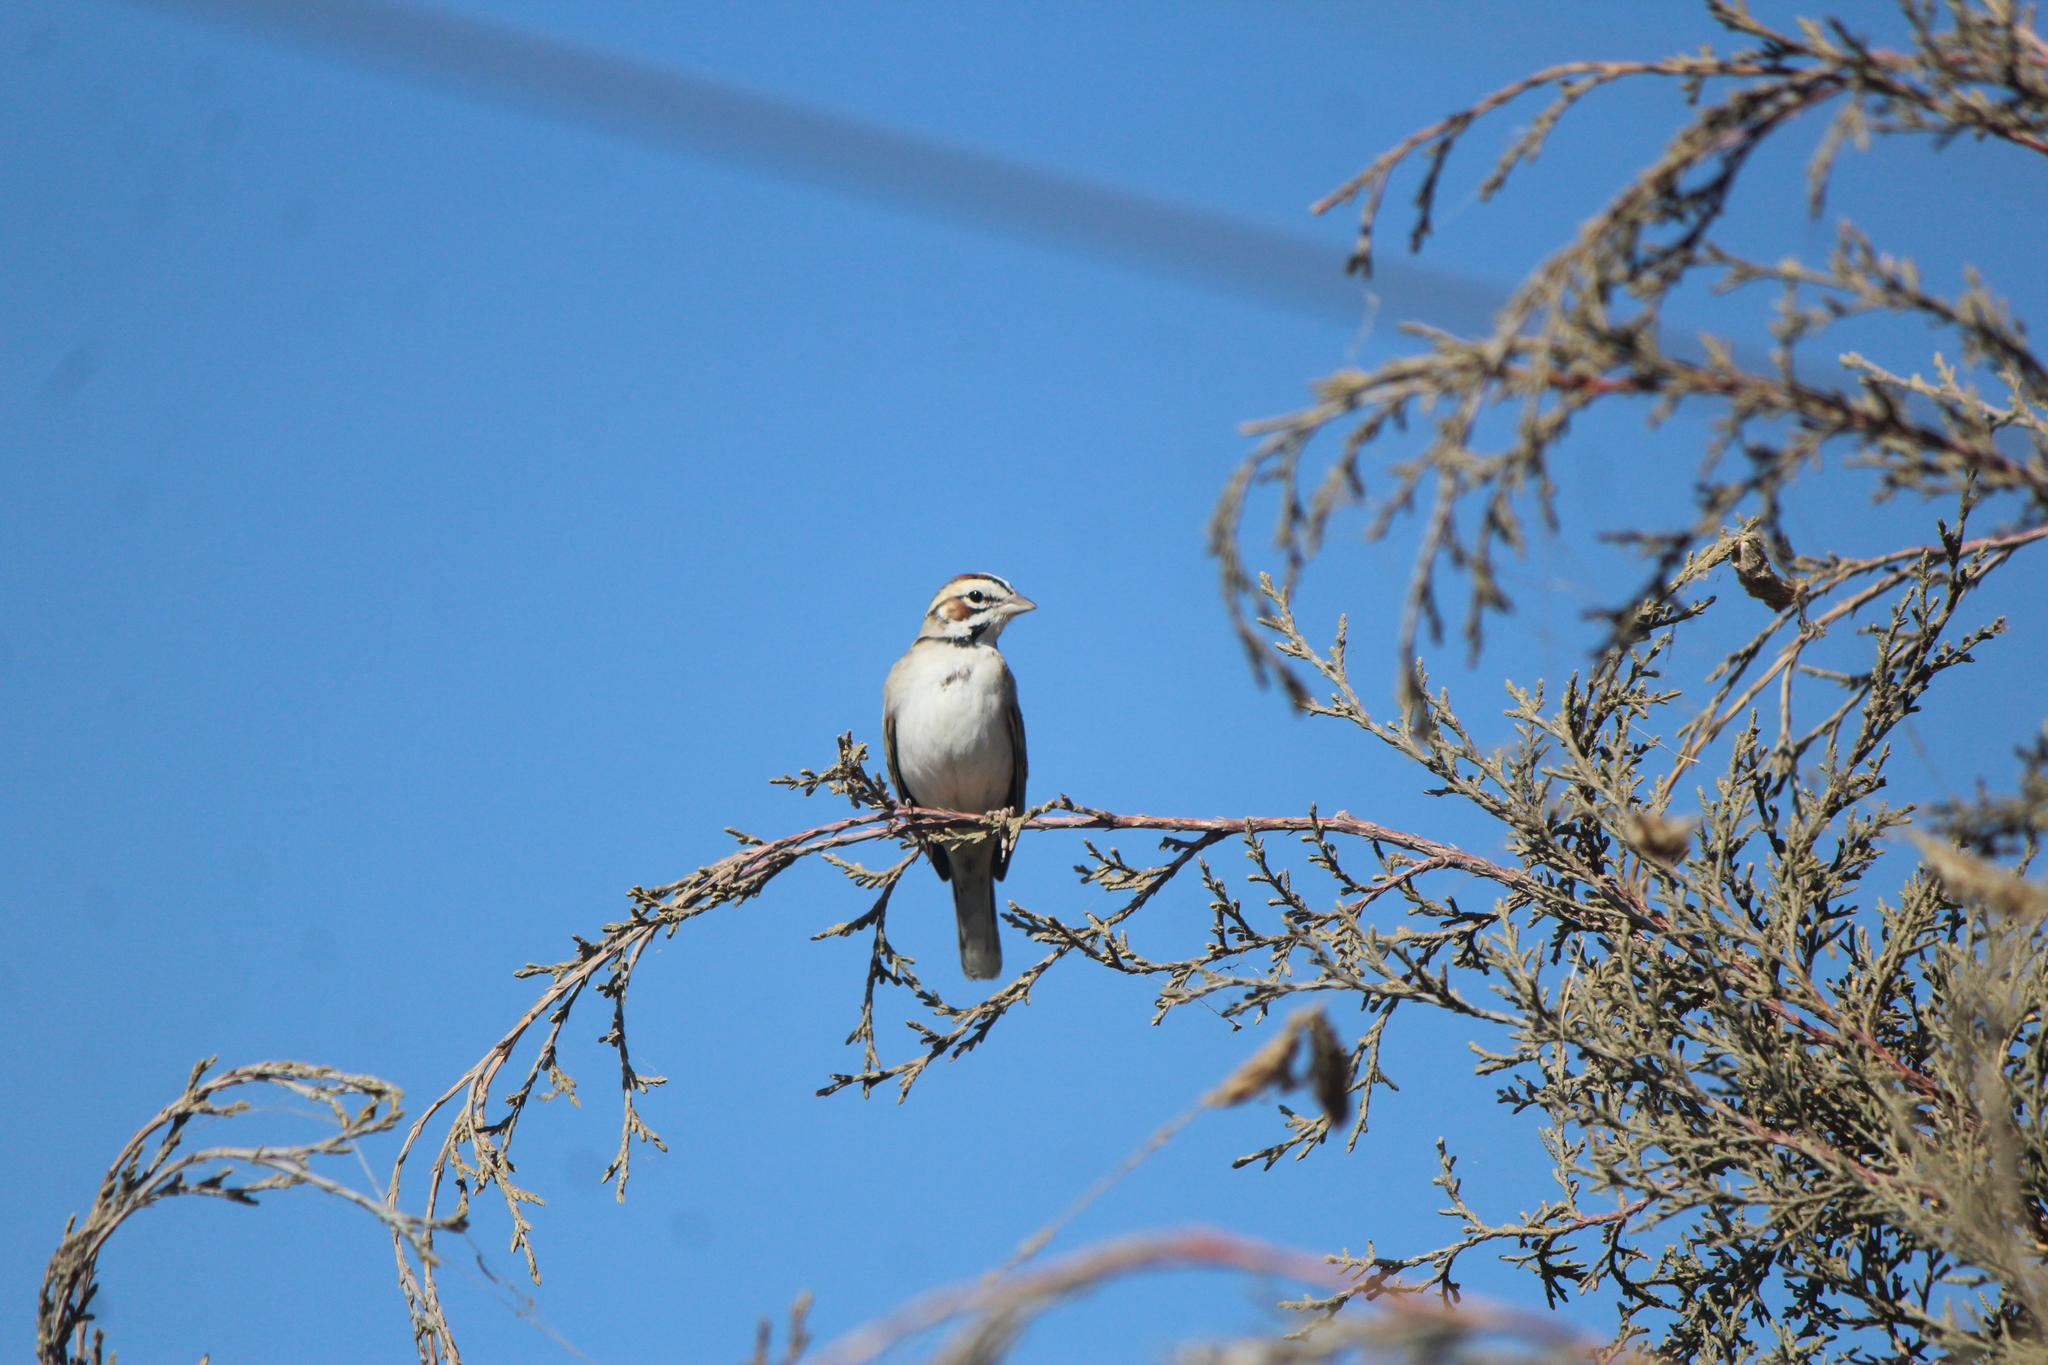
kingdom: Animalia
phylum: Chordata
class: Aves
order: Passeriformes
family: Passerellidae
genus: Chondestes
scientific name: Chondestes grammacus
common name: Lark sparrow
